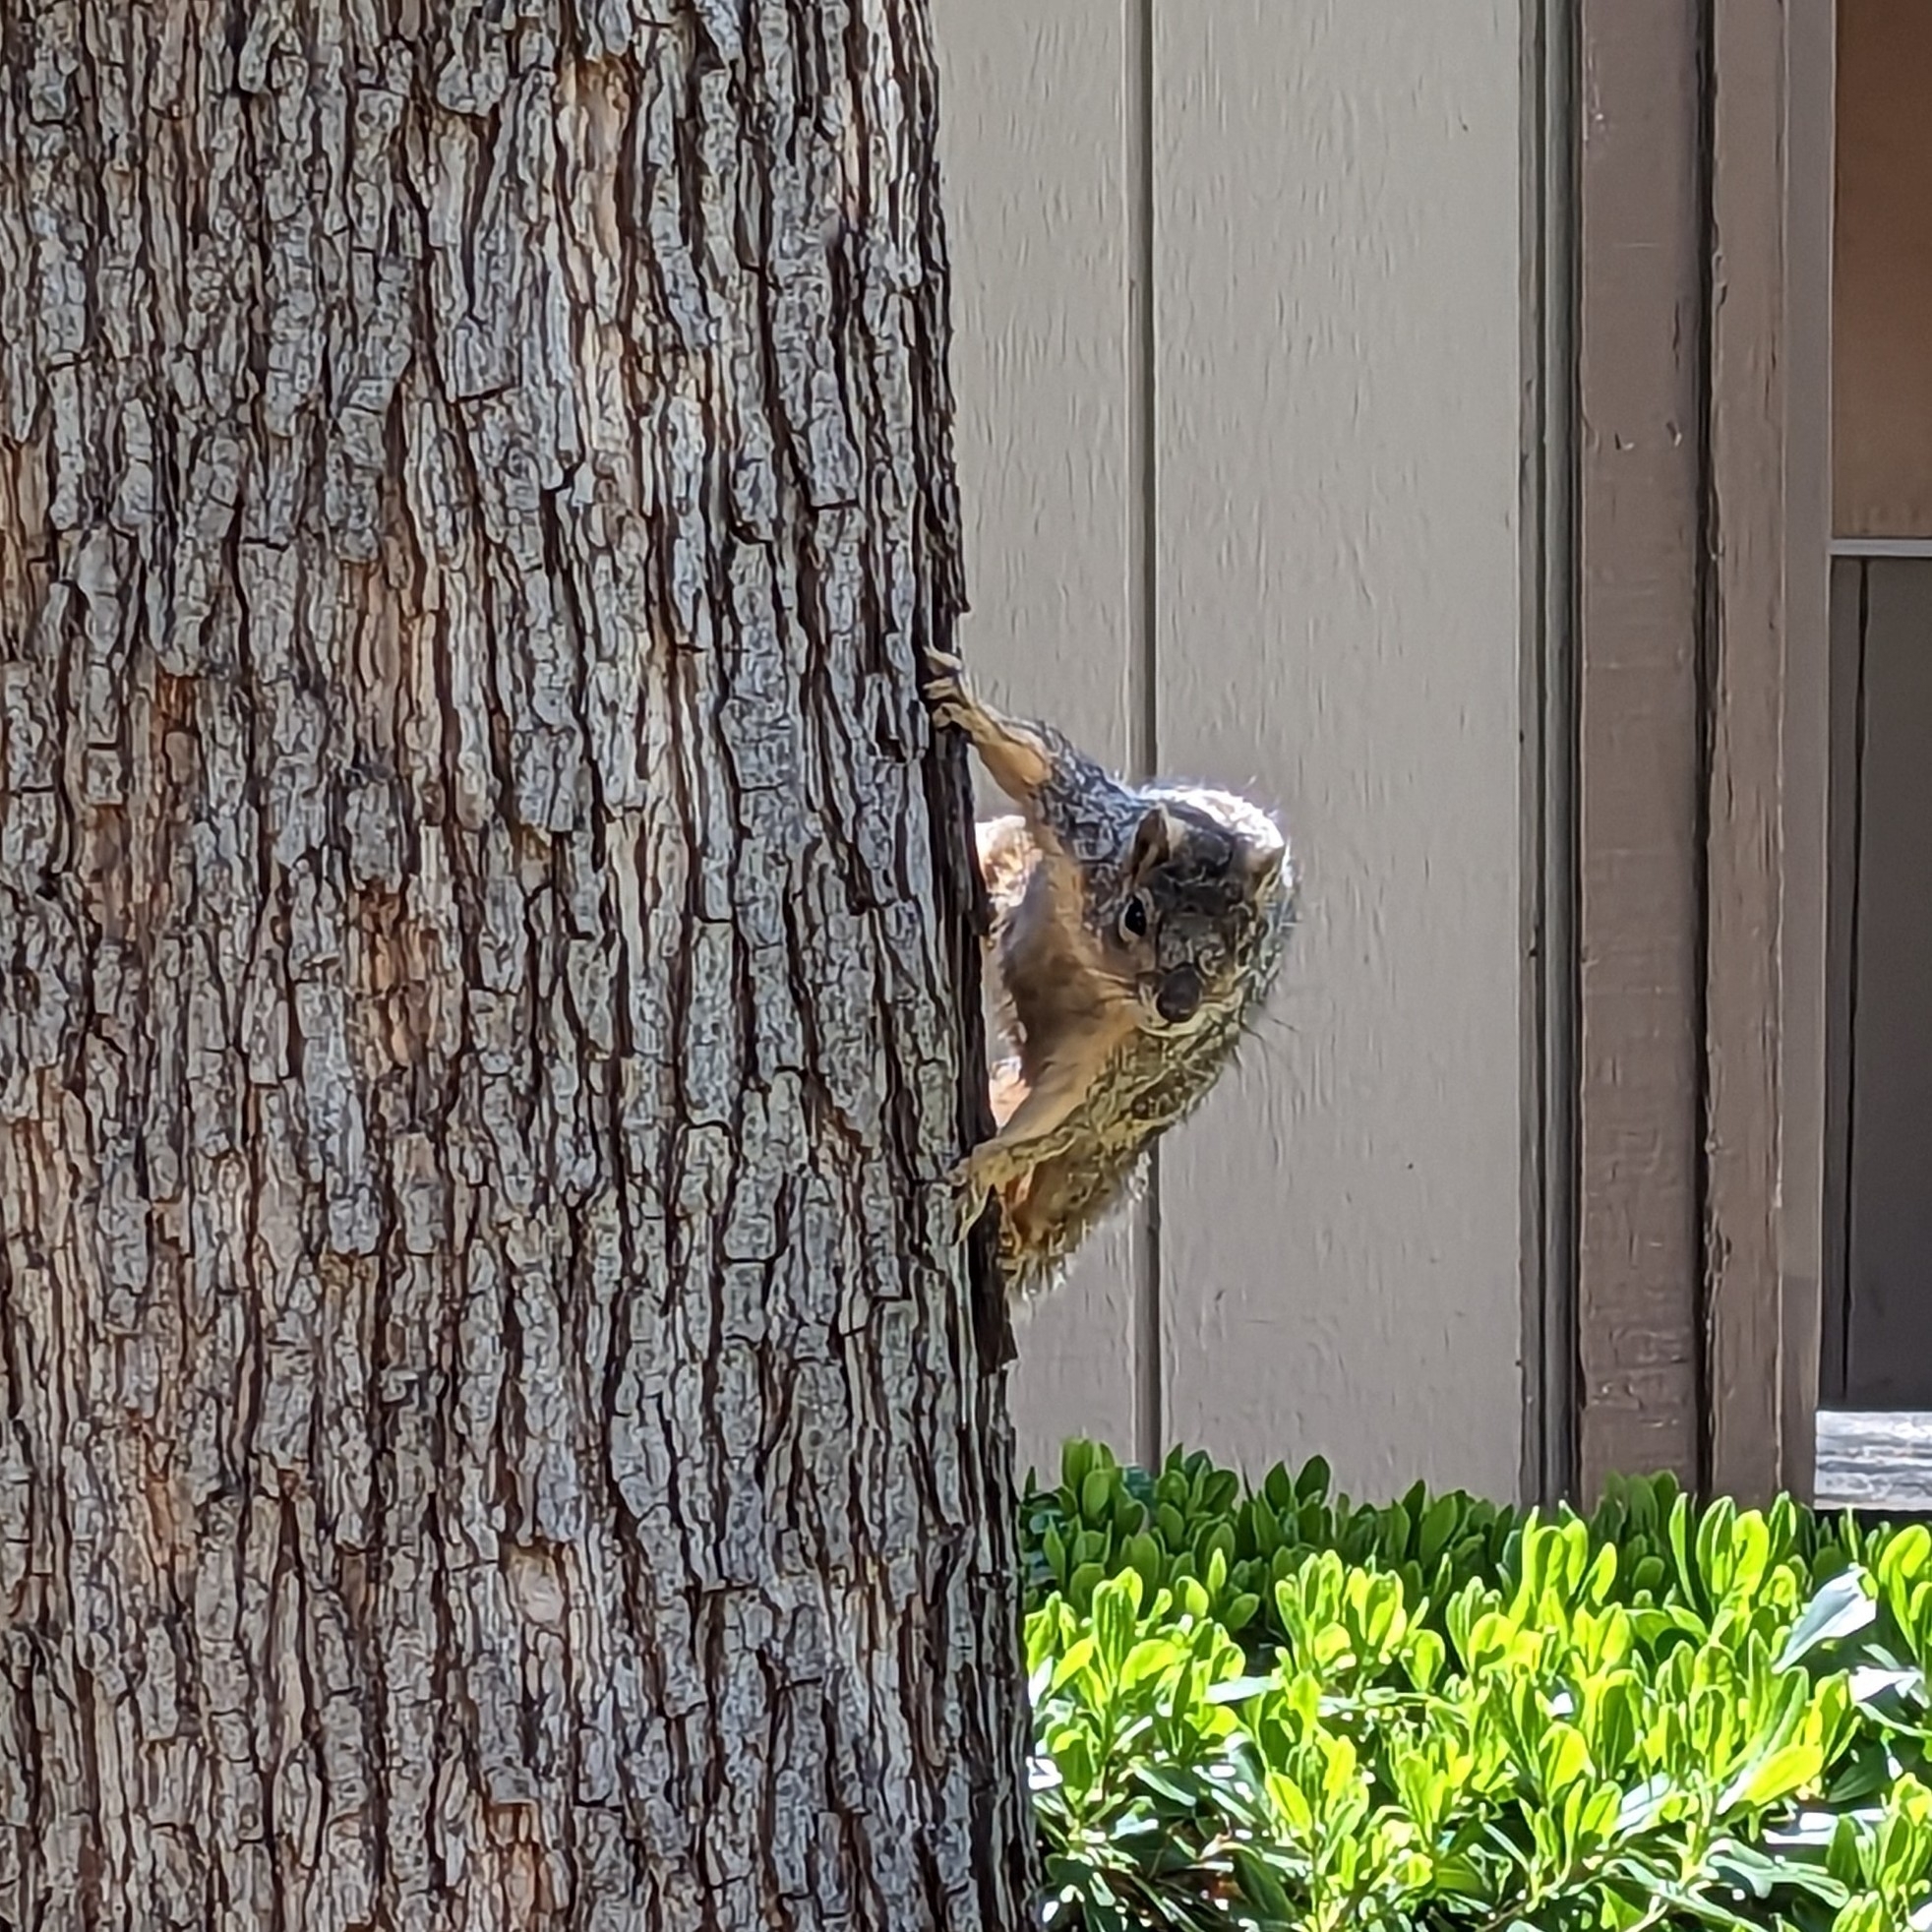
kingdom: Animalia
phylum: Chordata
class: Mammalia
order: Rodentia
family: Sciuridae
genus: Sciurus
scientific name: Sciurus niger
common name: Fox squirrel
